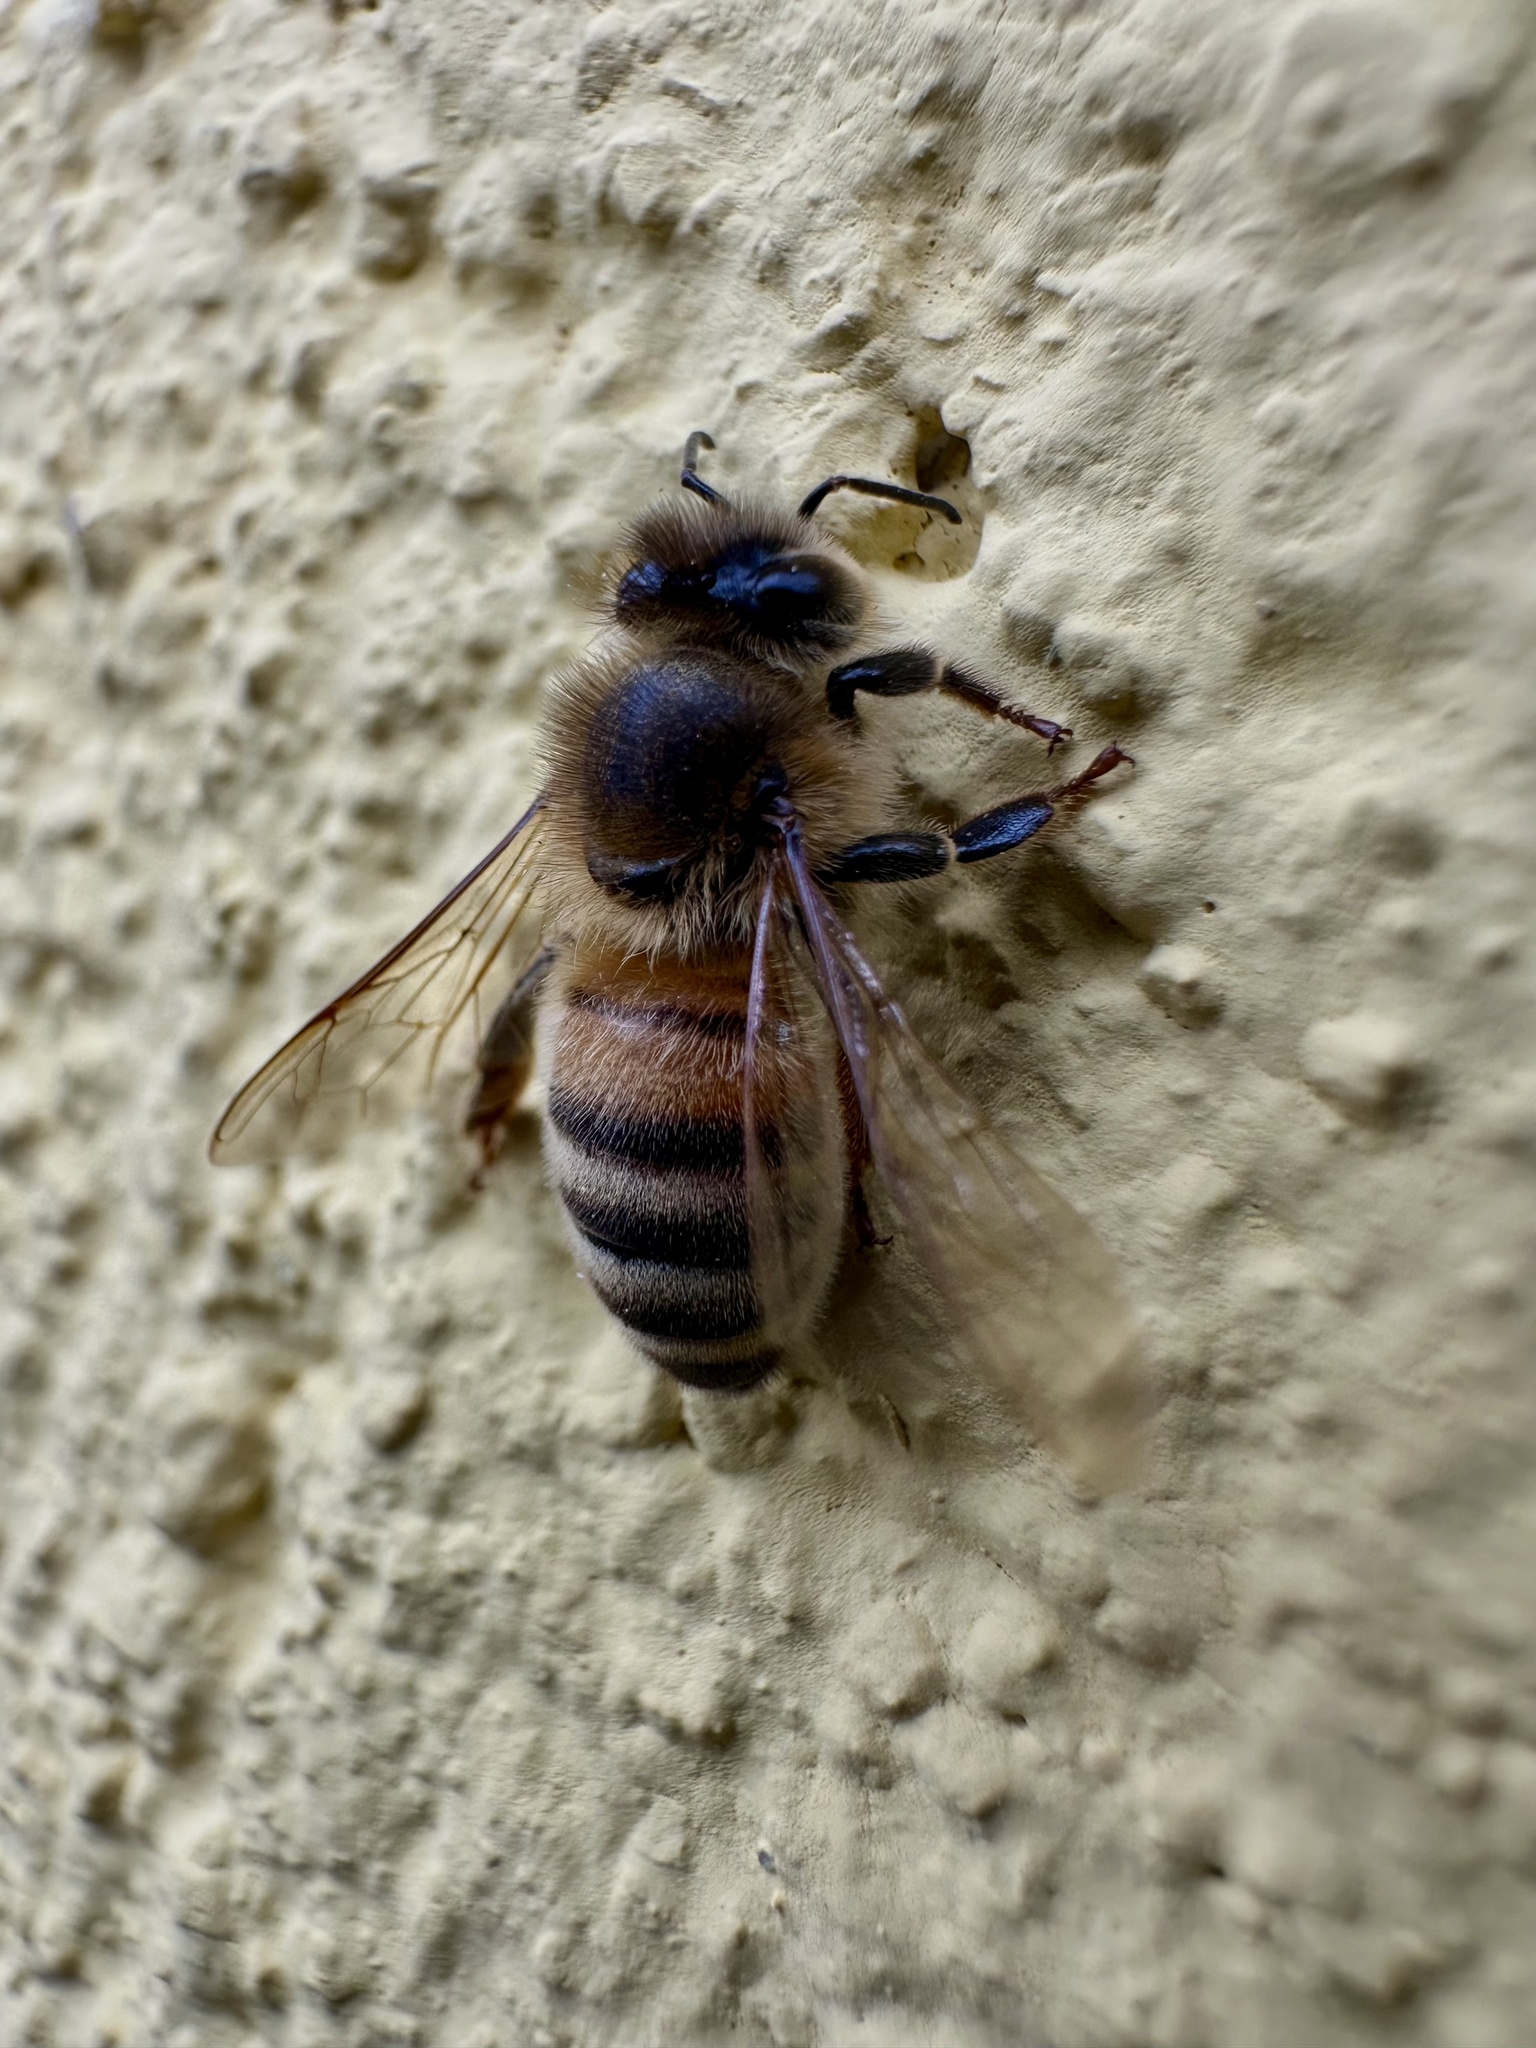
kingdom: Animalia
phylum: Arthropoda
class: Insecta
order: Hymenoptera
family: Apidae
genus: Apis
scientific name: Apis mellifera
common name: Honey bee
